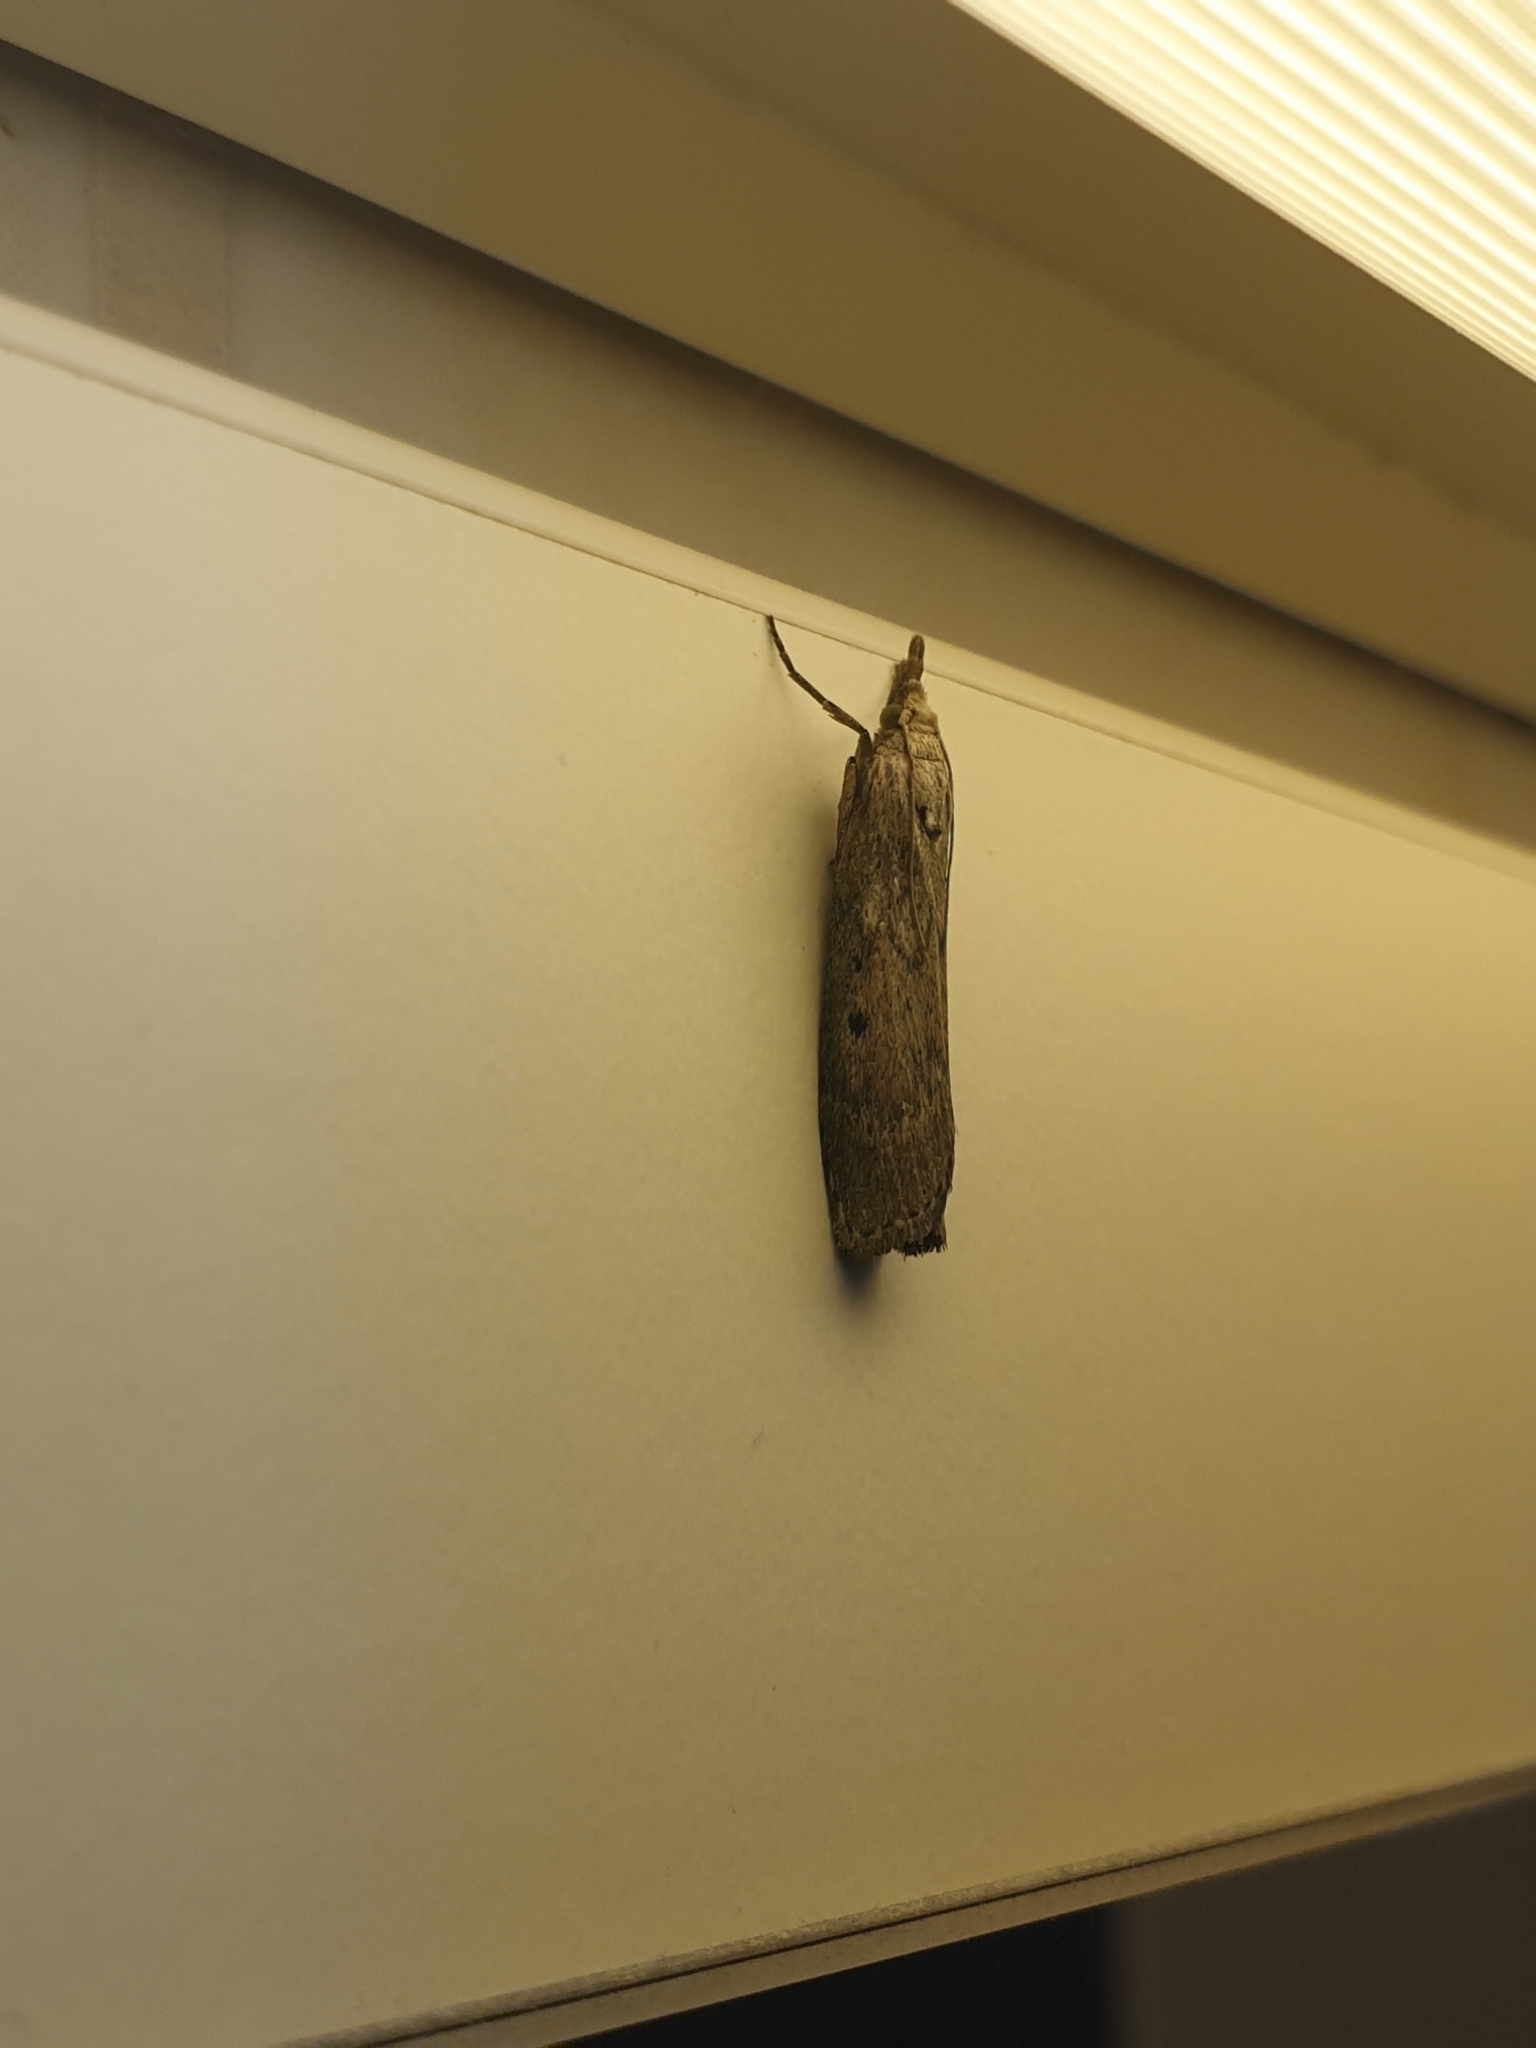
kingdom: Animalia
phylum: Arthropoda
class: Insecta
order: Lepidoptera
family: Pyralidae
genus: Aphomia
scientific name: Aphomia sociella
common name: Bee moth
